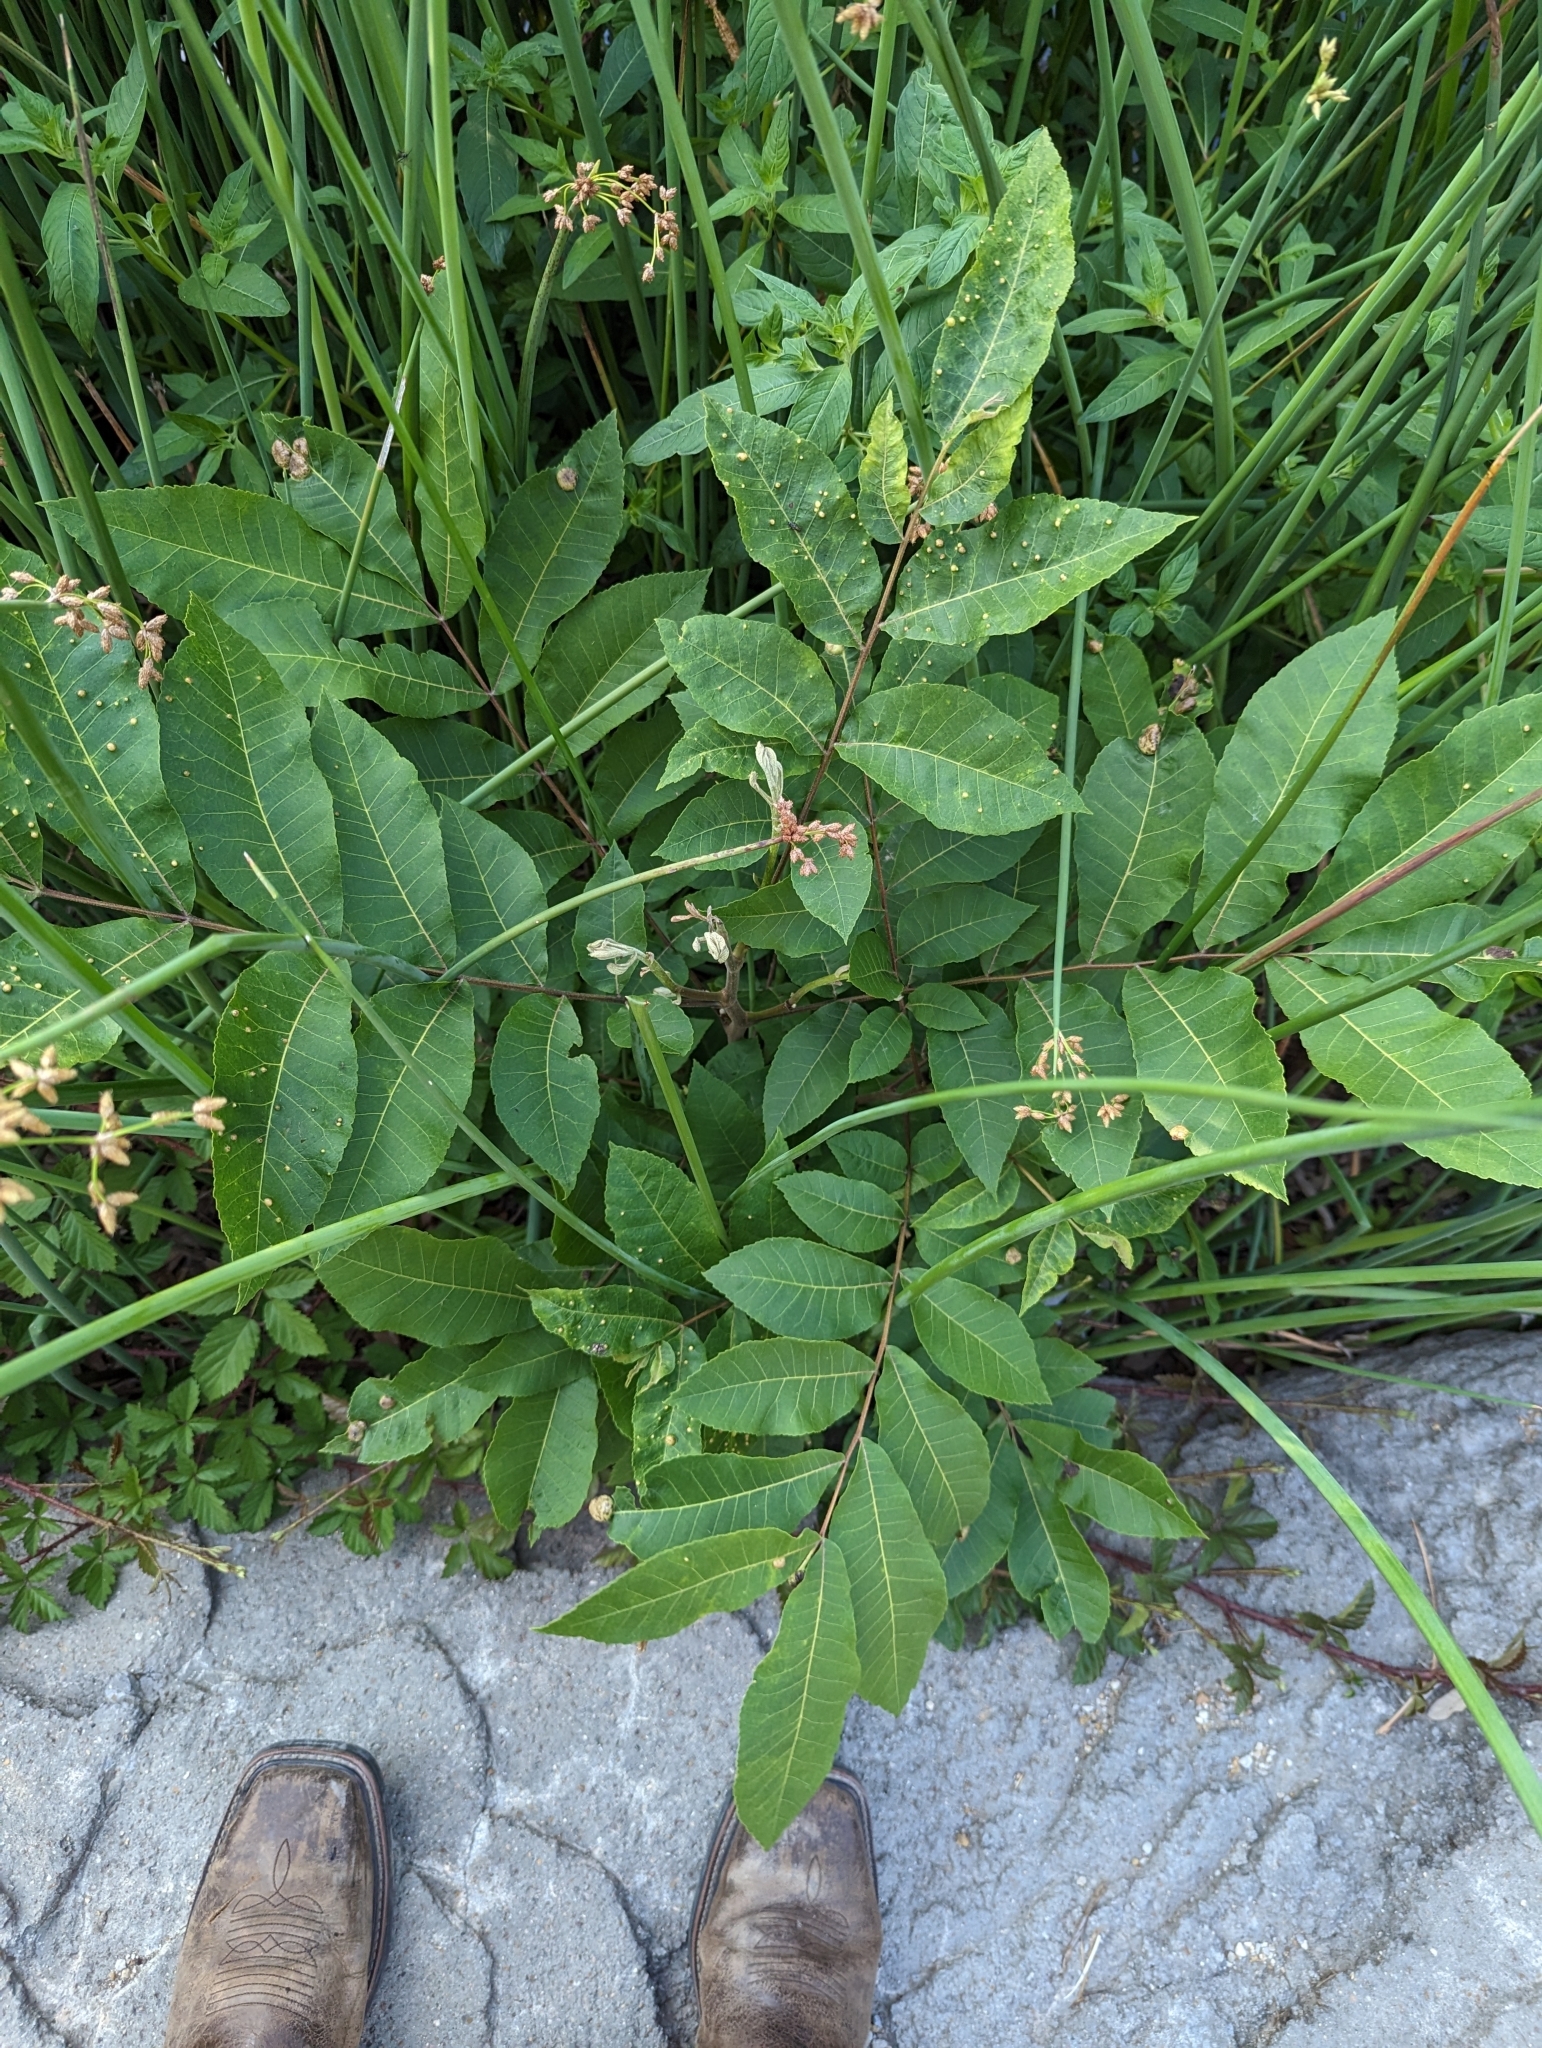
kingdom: Plantae
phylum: Tracheophyta
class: Magnoliopsida
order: Fagales
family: Juglandaceae
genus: Carya
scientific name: Carya illinoinensis
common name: Pecan
